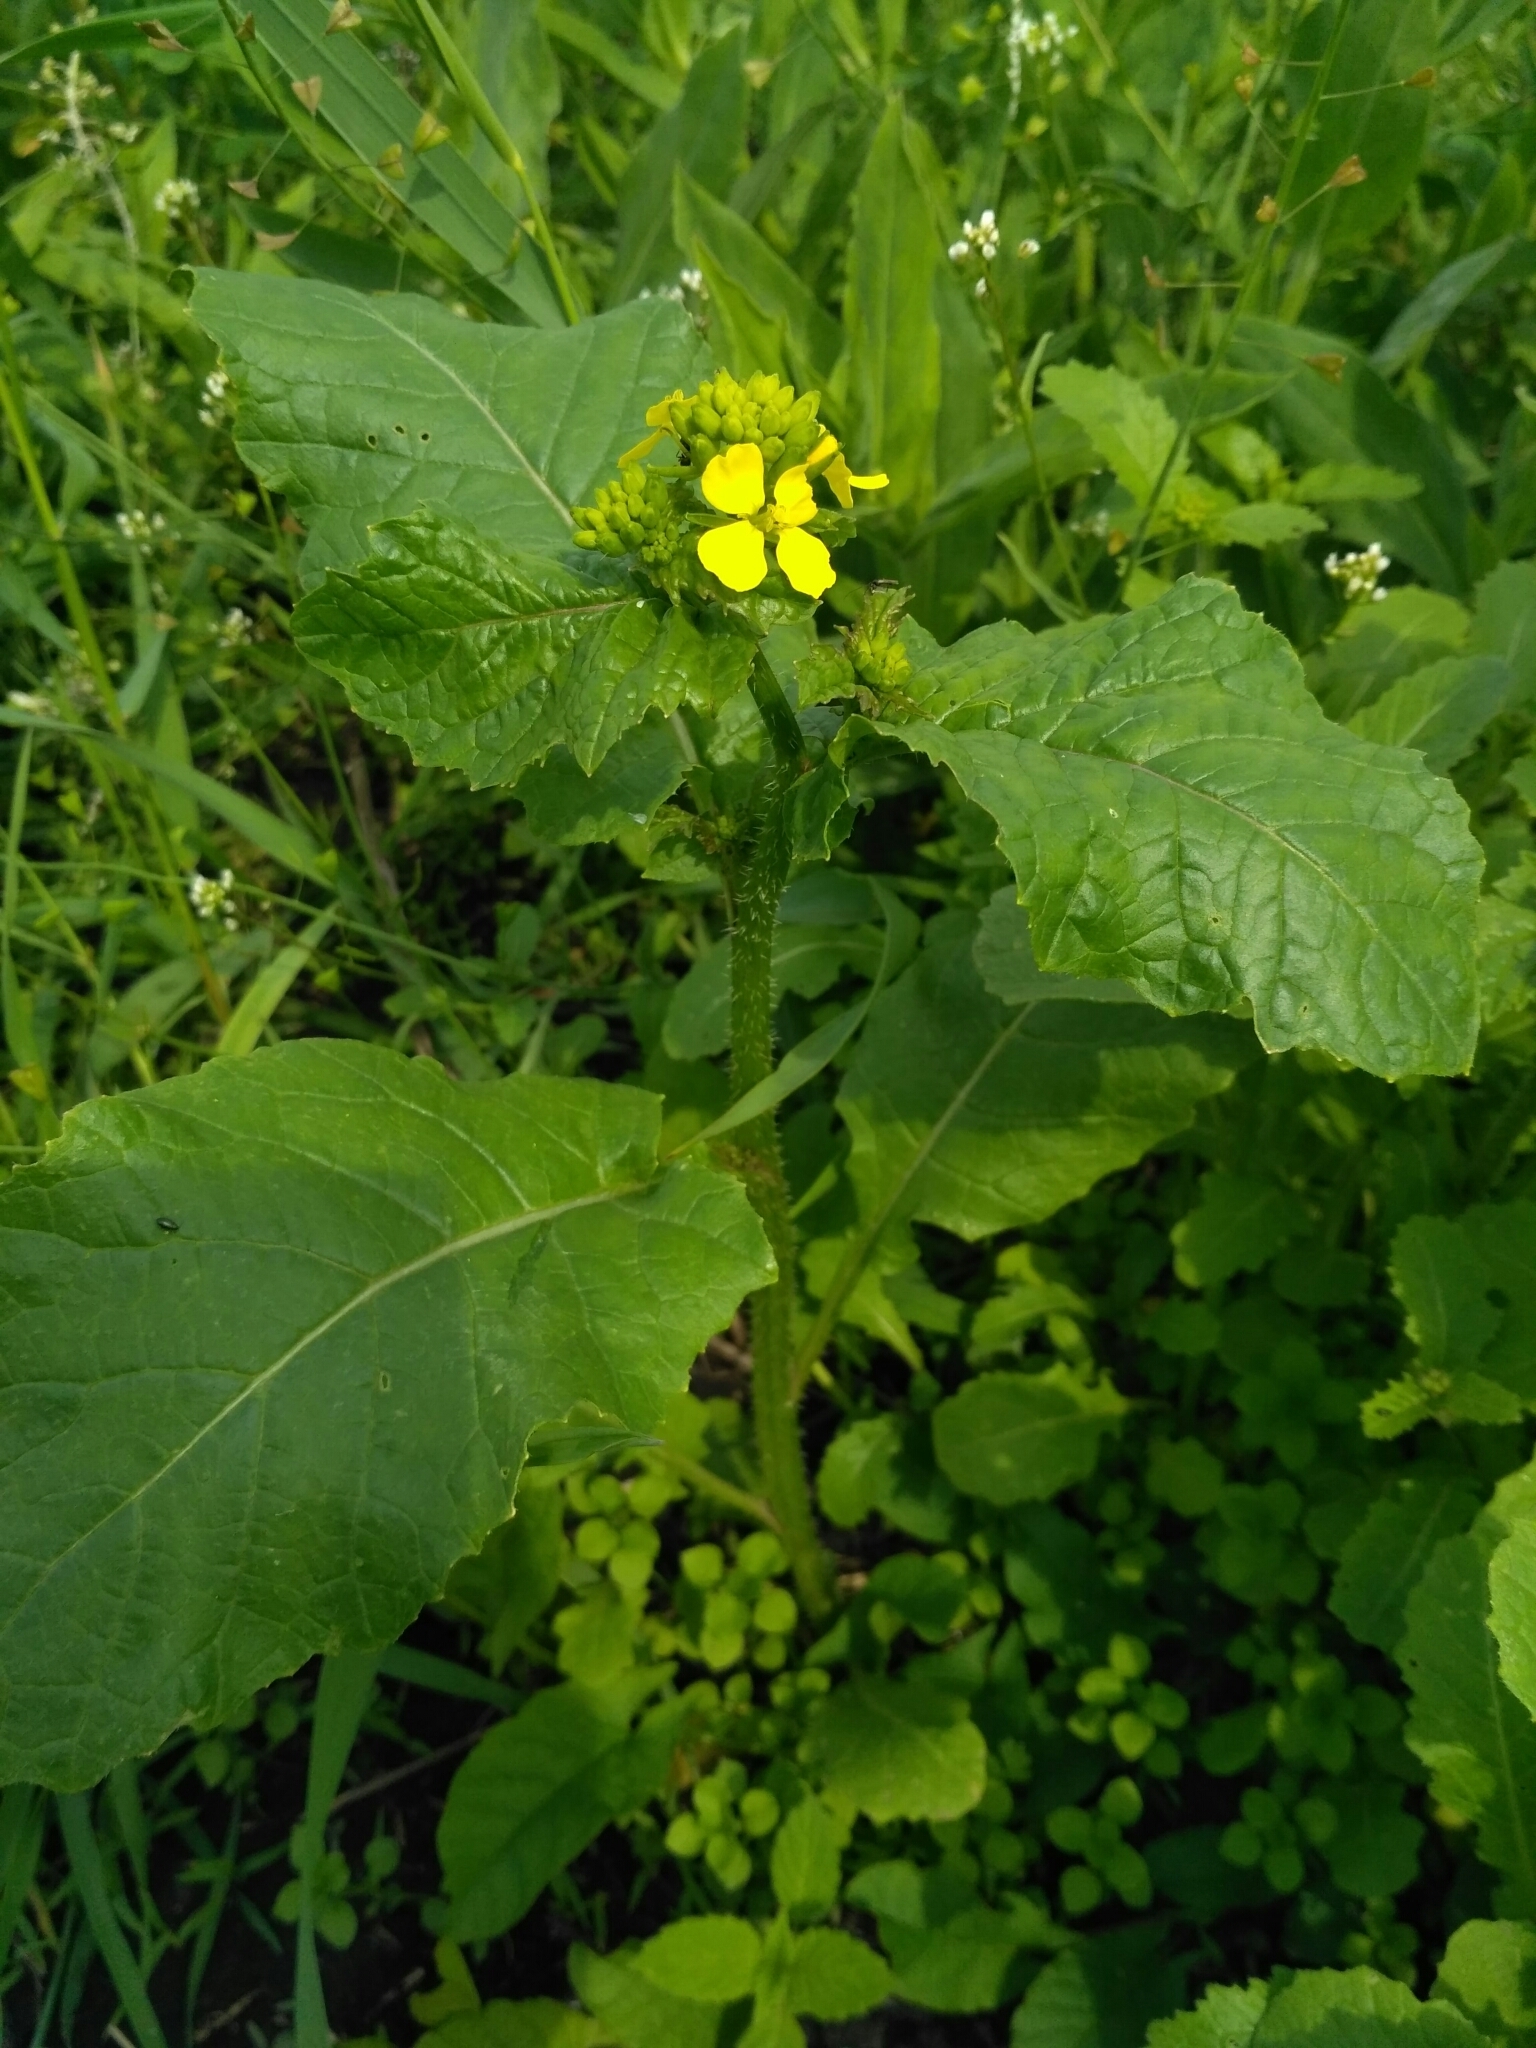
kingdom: Plantae
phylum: Tracheophyta
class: Magnoliopsida
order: Brassicales
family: Brassicaceae
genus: Sinapis
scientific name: Sinapis arvensis
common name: Charlock
